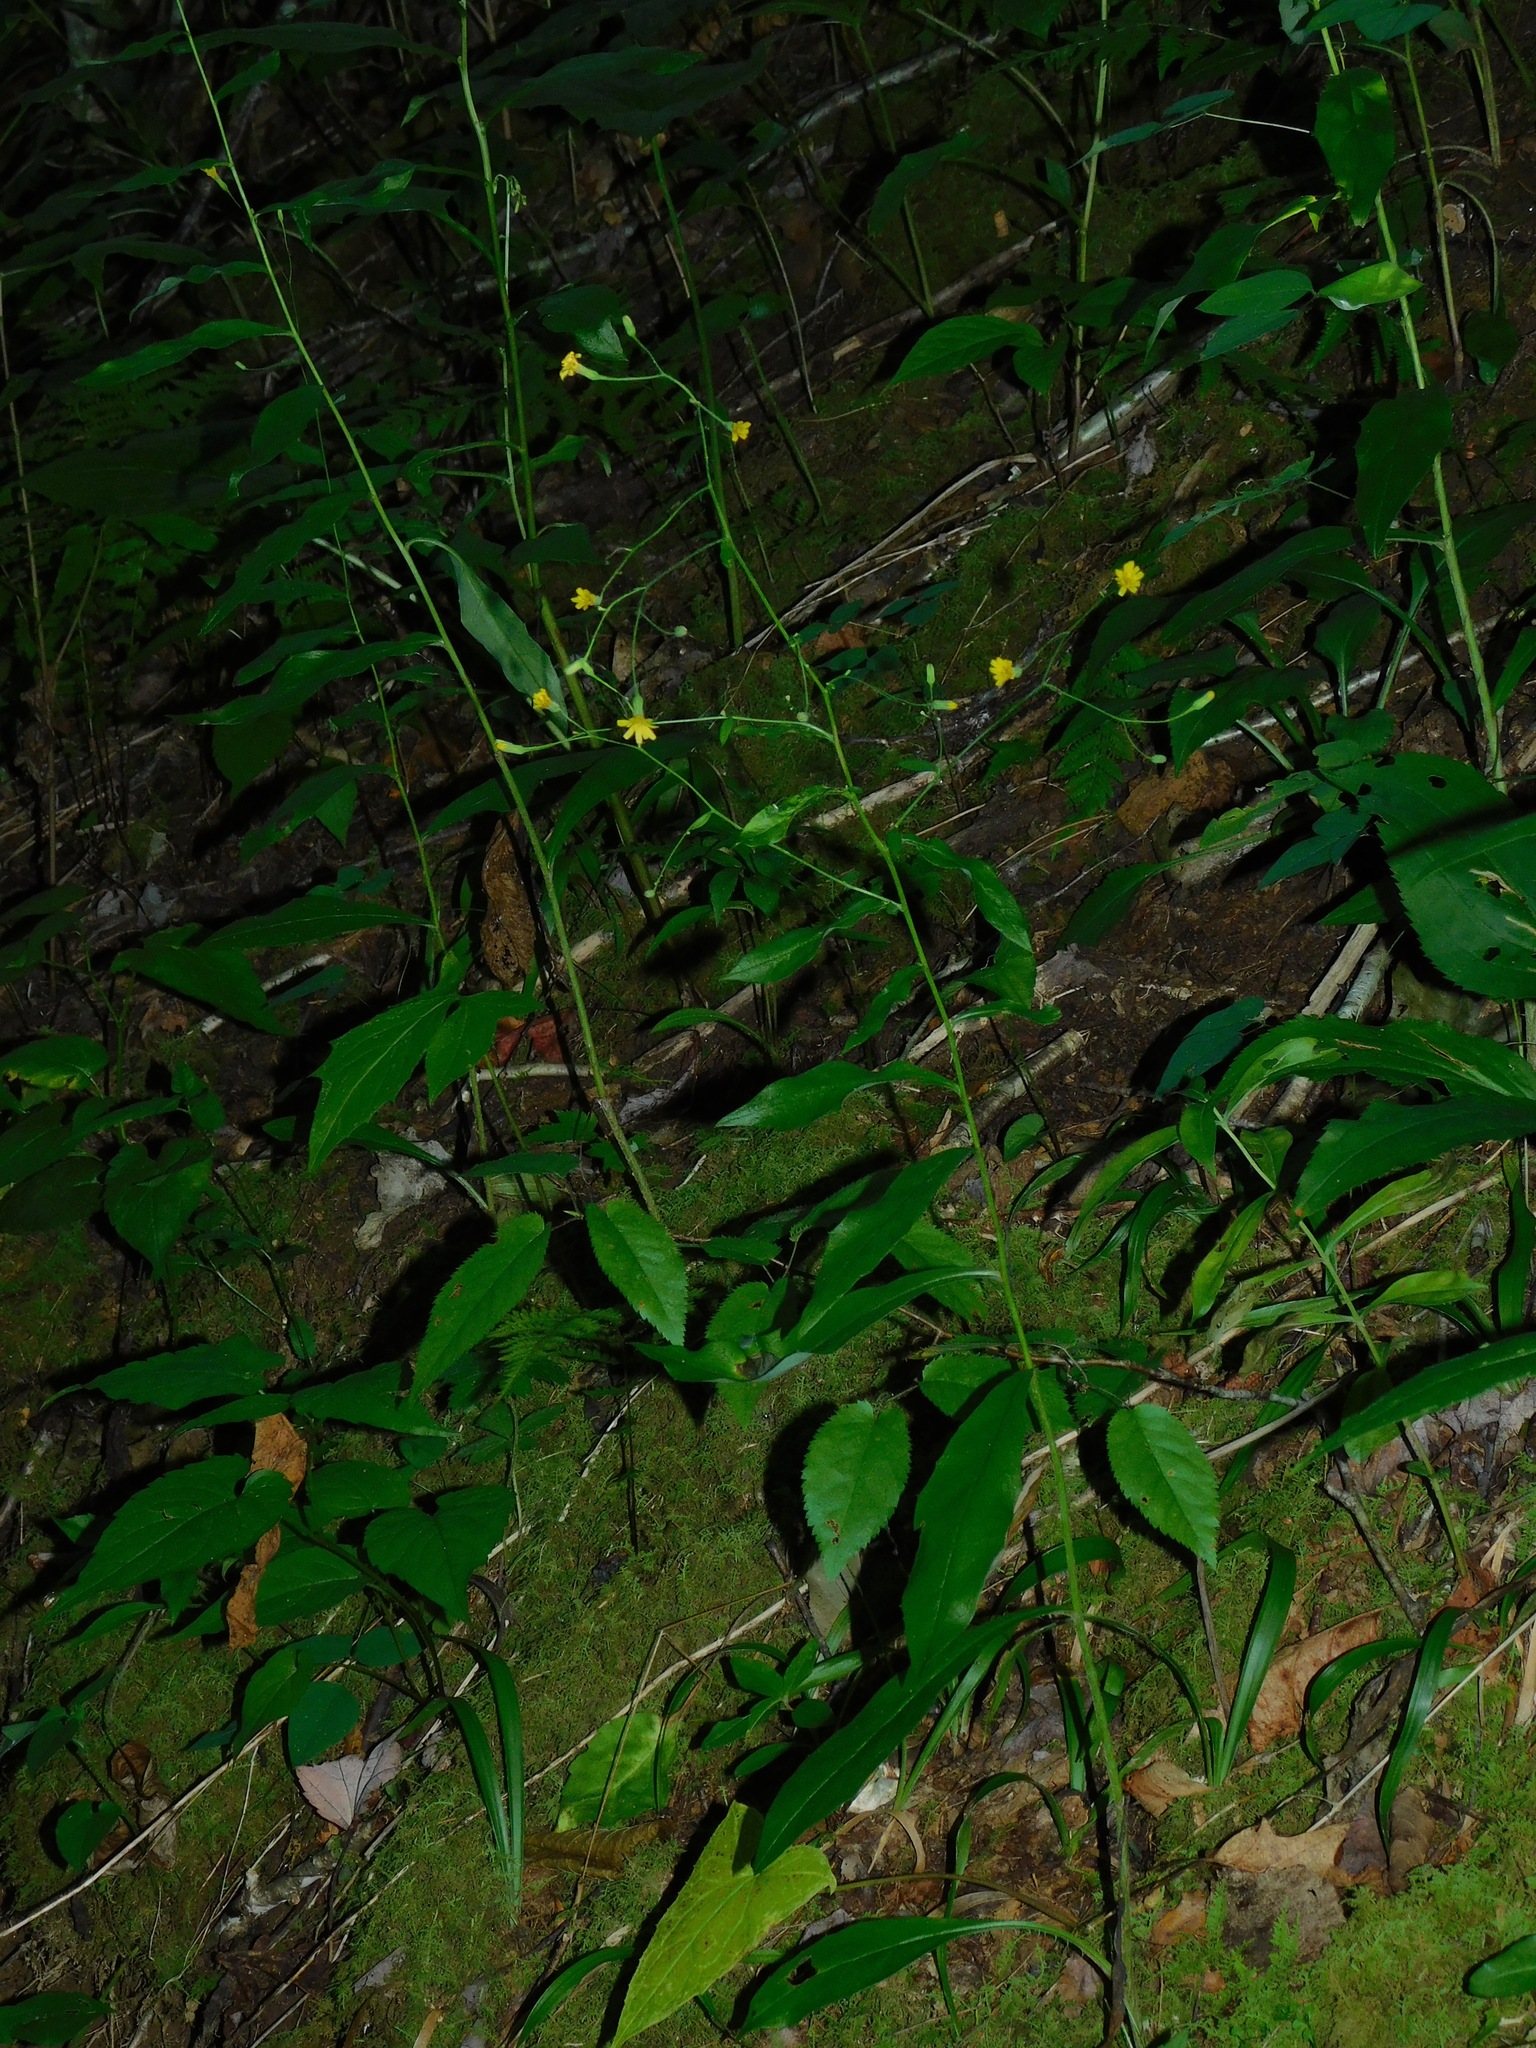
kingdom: Plantae
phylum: Tracheophyta
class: Magnoliopsida
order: Asterales
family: Asteraceae
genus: Hieracium
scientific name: Hieracium paniculatum
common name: Allegheny hawkweed
